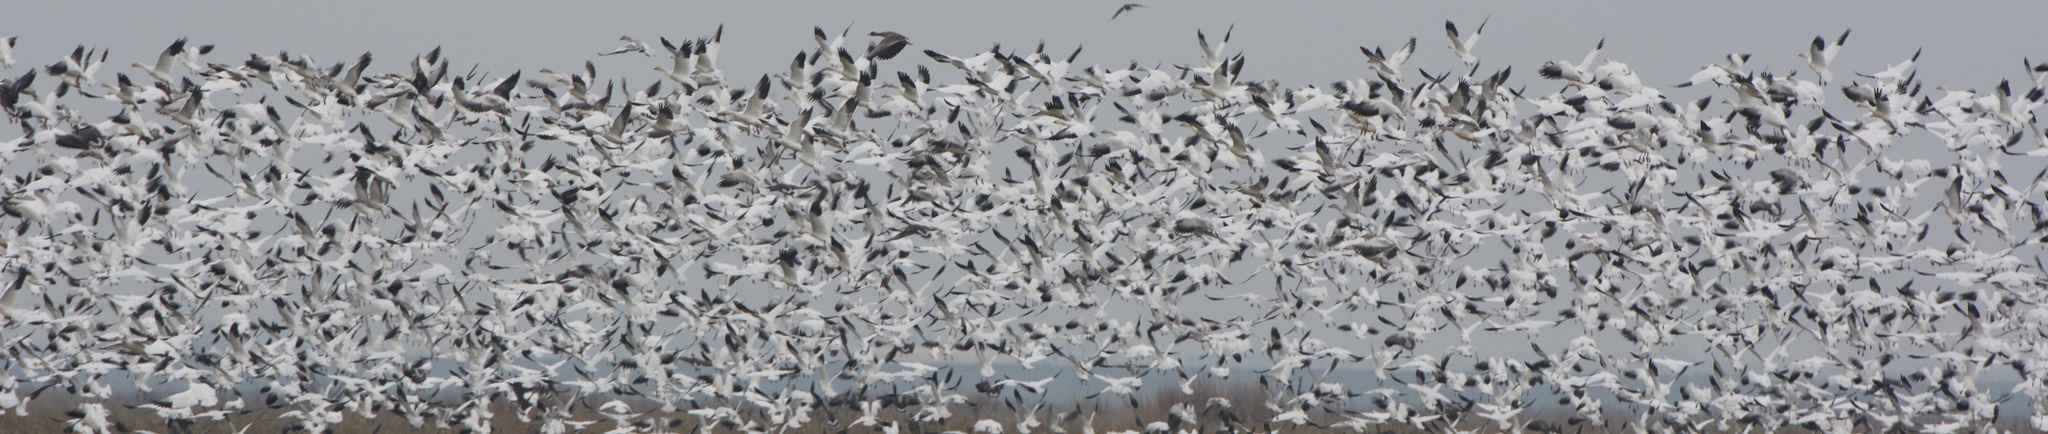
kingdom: Animalia
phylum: Chordata
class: Aves
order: Anseriformes
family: Anatidae
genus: Anser
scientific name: Anser caerulescens
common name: Snow goose
